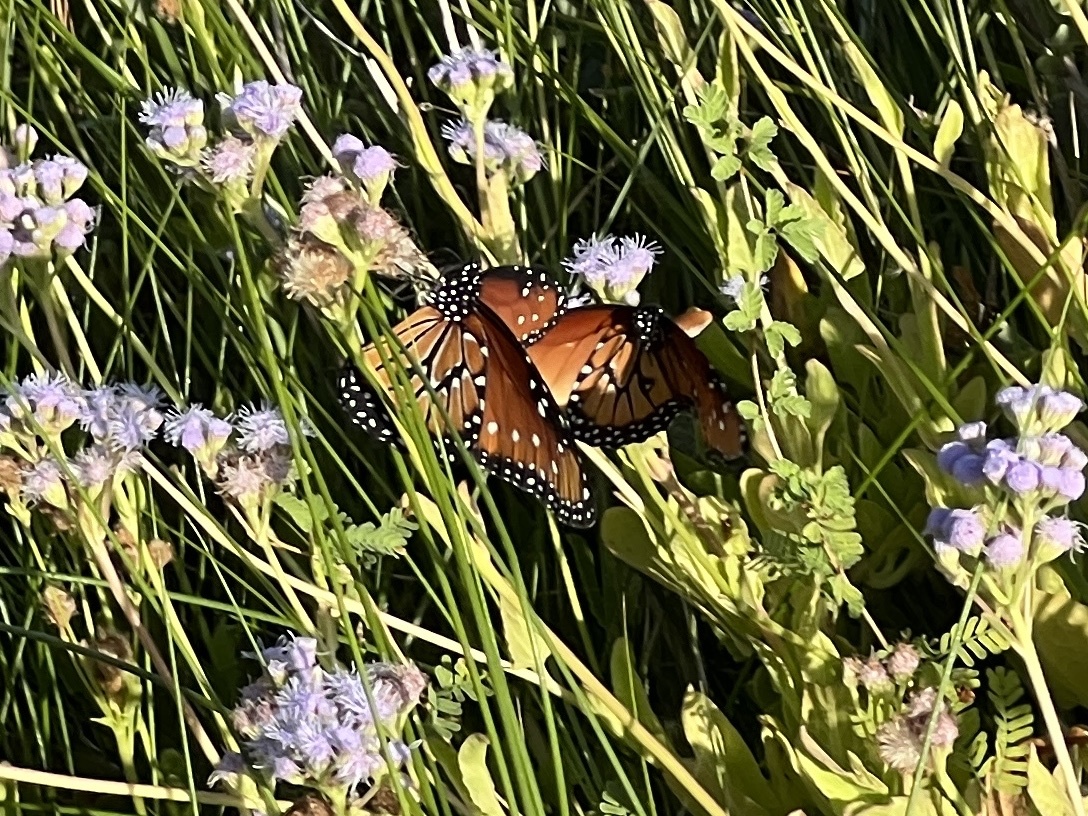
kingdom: Animalia
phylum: Arthropoda
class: Insecta
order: Lepidoptera
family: Nymphalidae
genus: Danaus
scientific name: Danaus gilippus
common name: Queen
